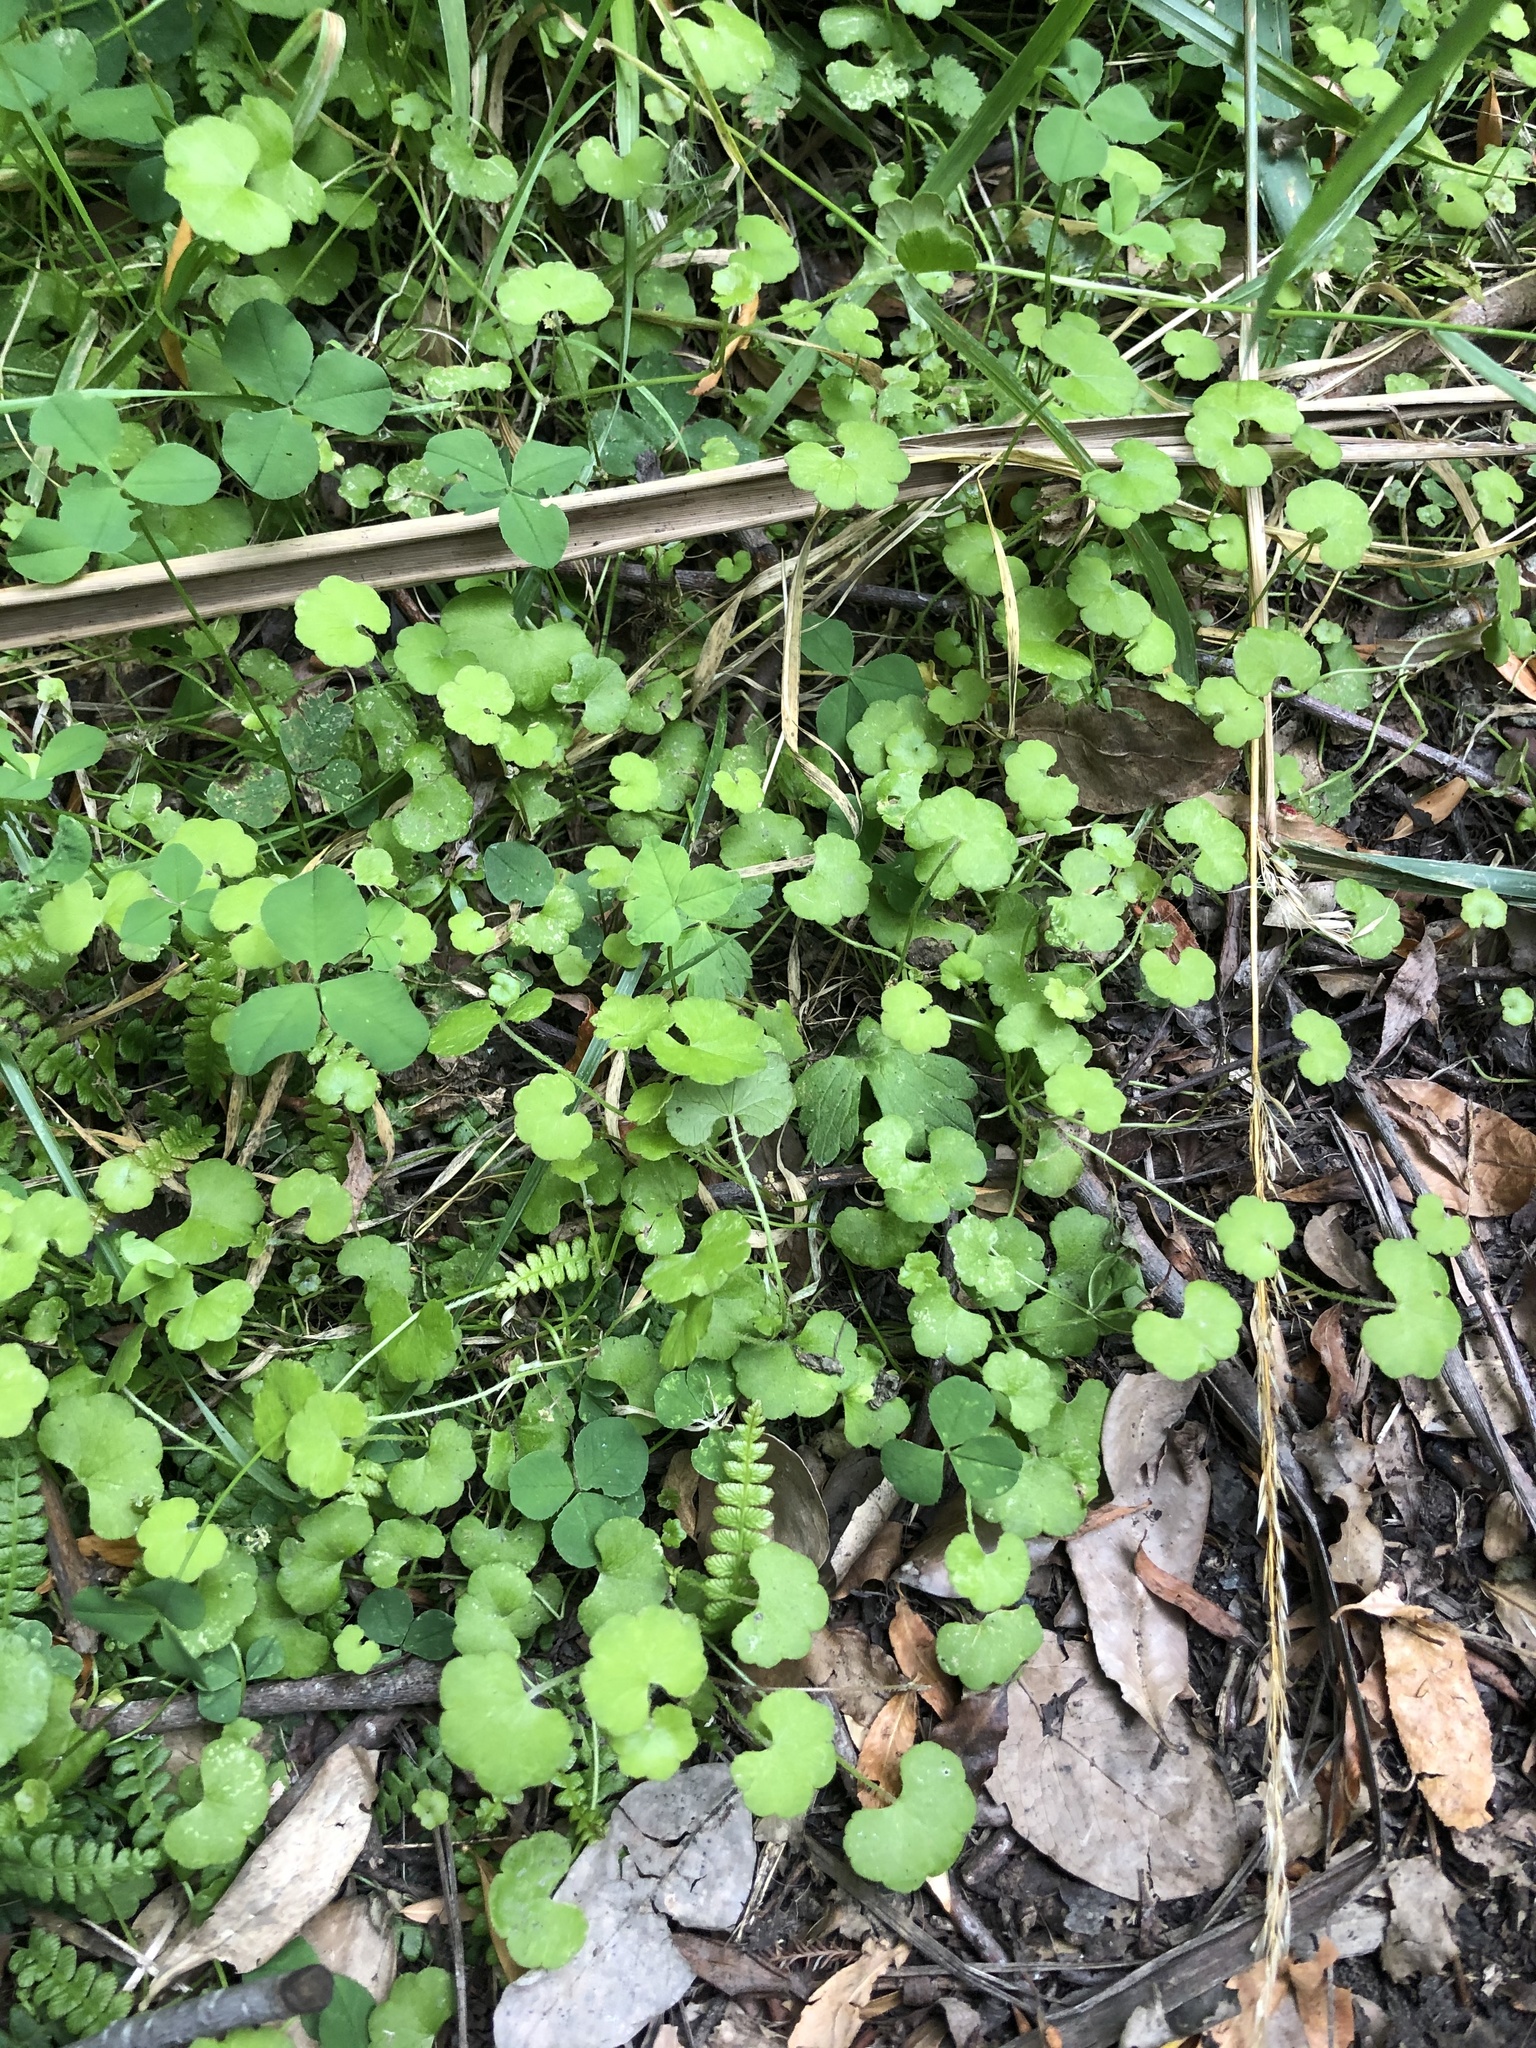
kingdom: Plantae
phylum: Tracheophyta
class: Magnoliopsida
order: Solanales
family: Convolvulaceae
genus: Calystegia
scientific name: Calystegia silvatica
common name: Large bindweed
